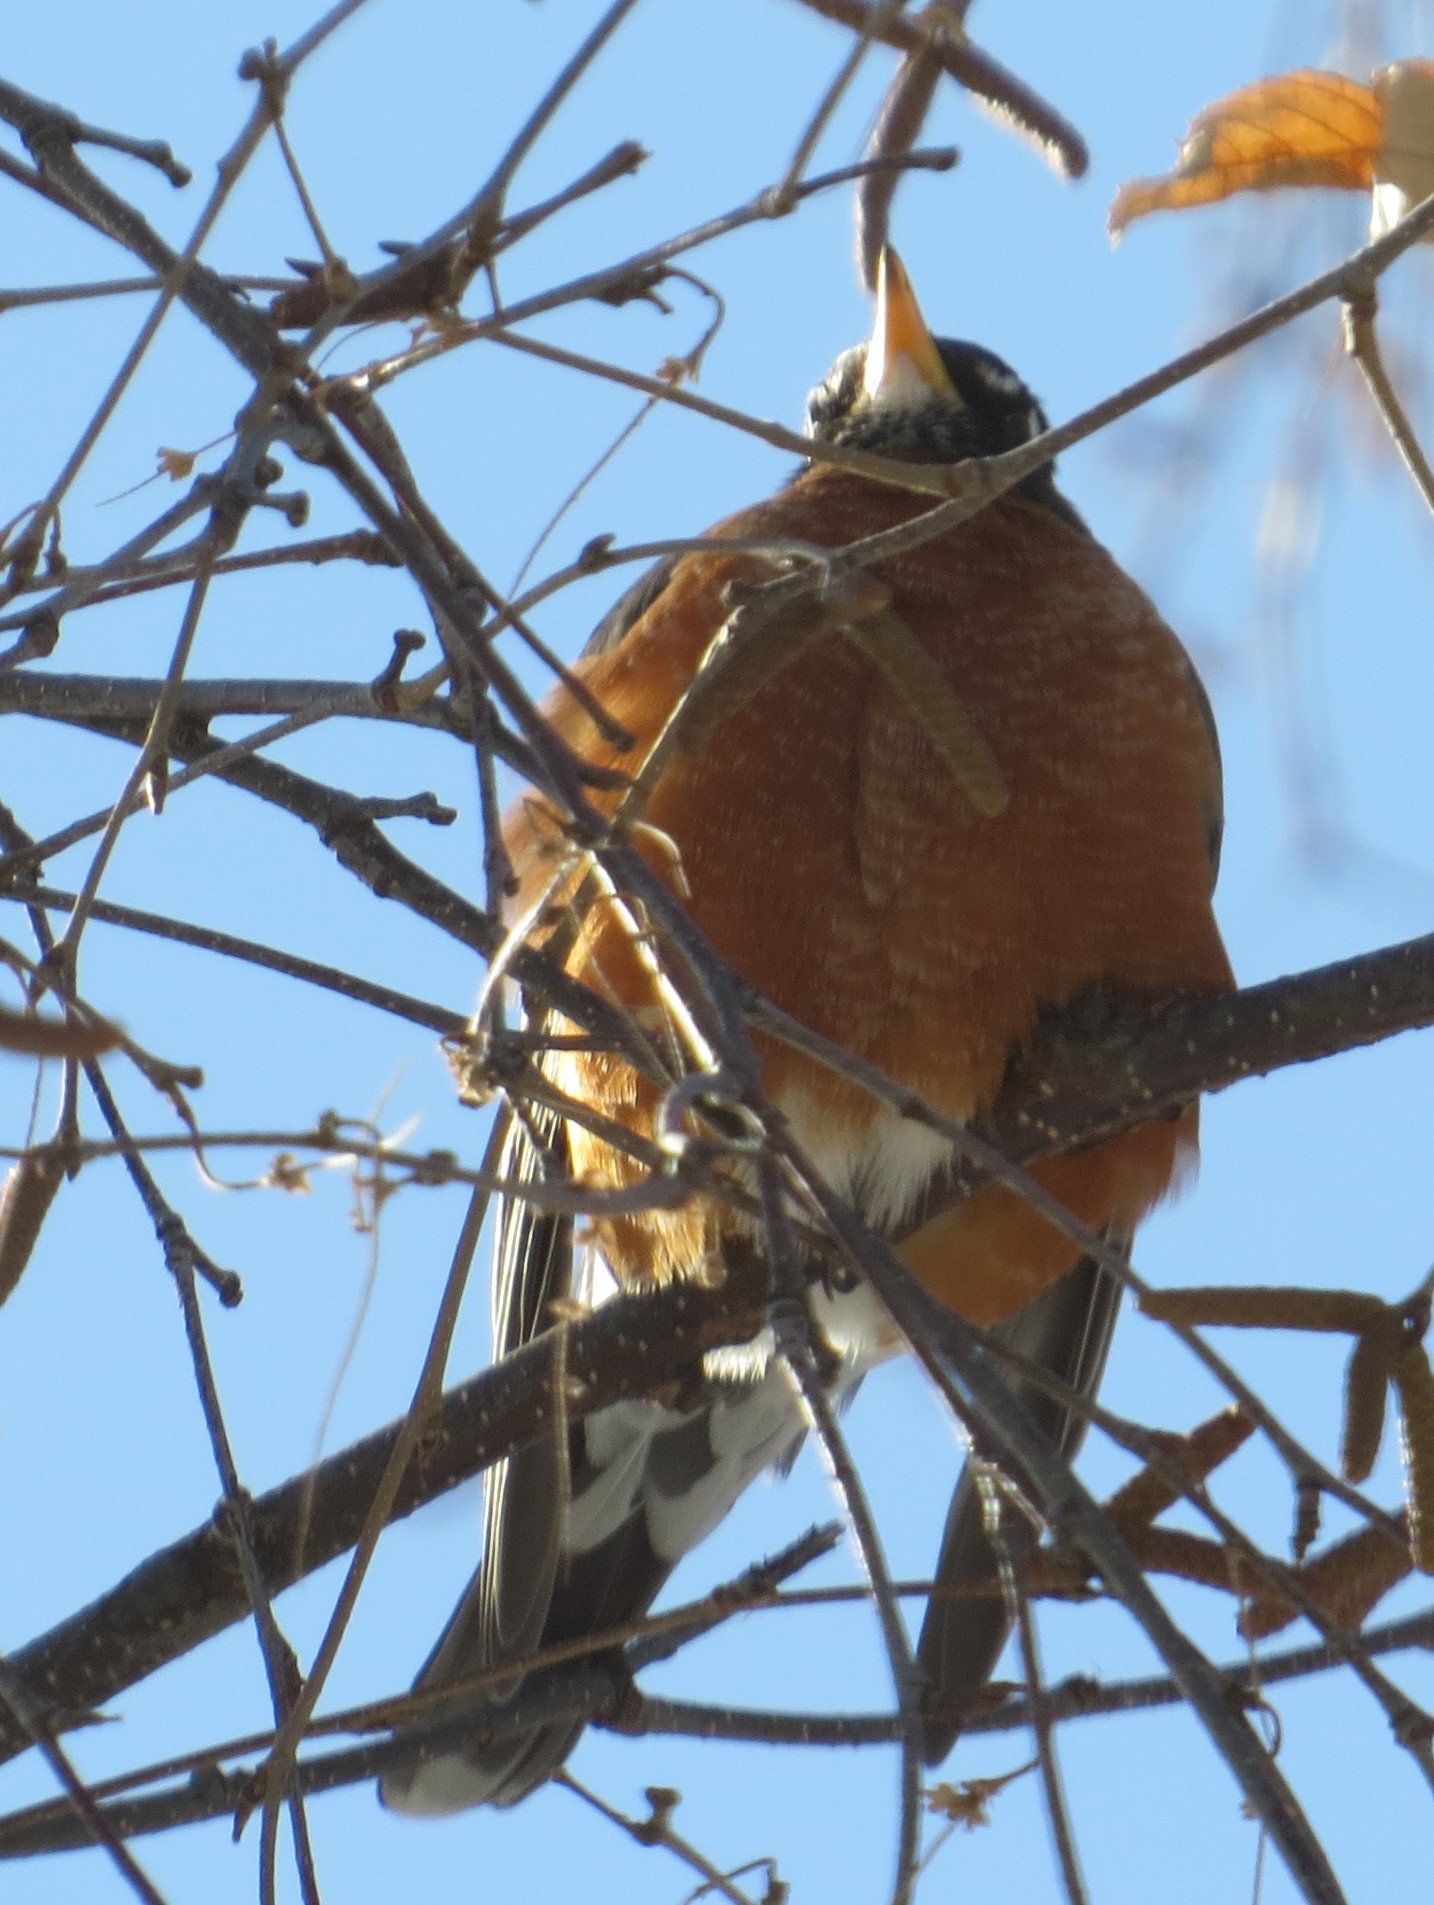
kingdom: Animalia
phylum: Chordata
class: Aves
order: Passeriformes
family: Turdidae
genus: Turdus
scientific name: Turdus migratorius
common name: American robin
